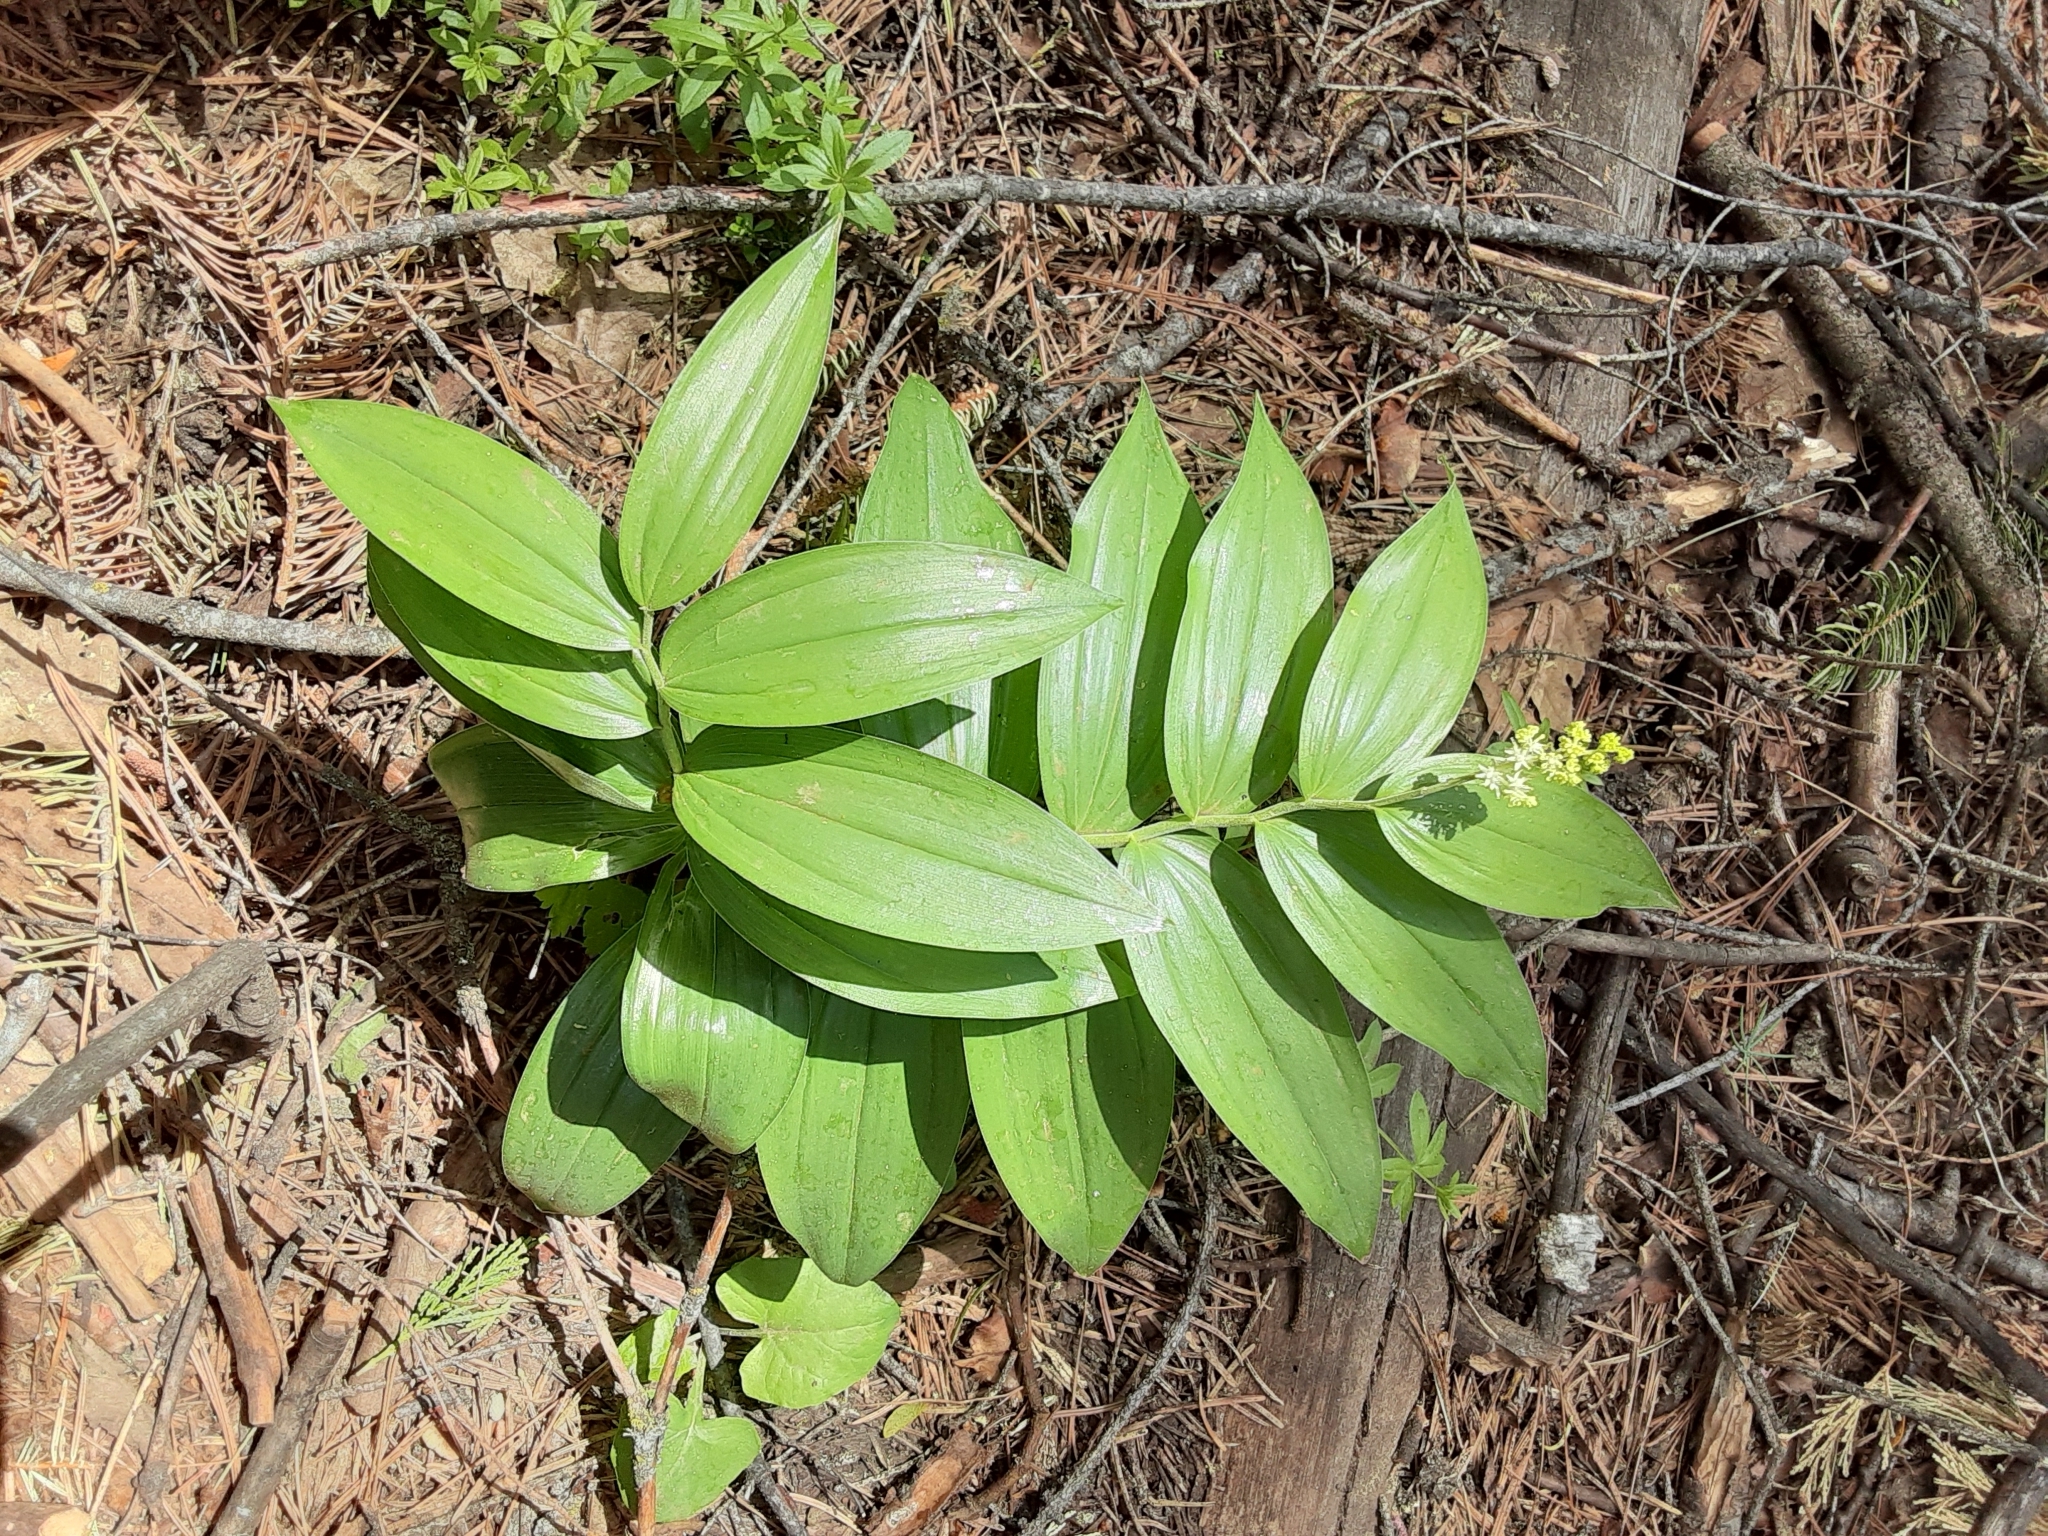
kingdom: Plantae
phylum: Tracheophyta
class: Liliopsida
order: Asparagales
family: Asparagaceae
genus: Maianthemum
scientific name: Maianthemum racemosum
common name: False spikenard
